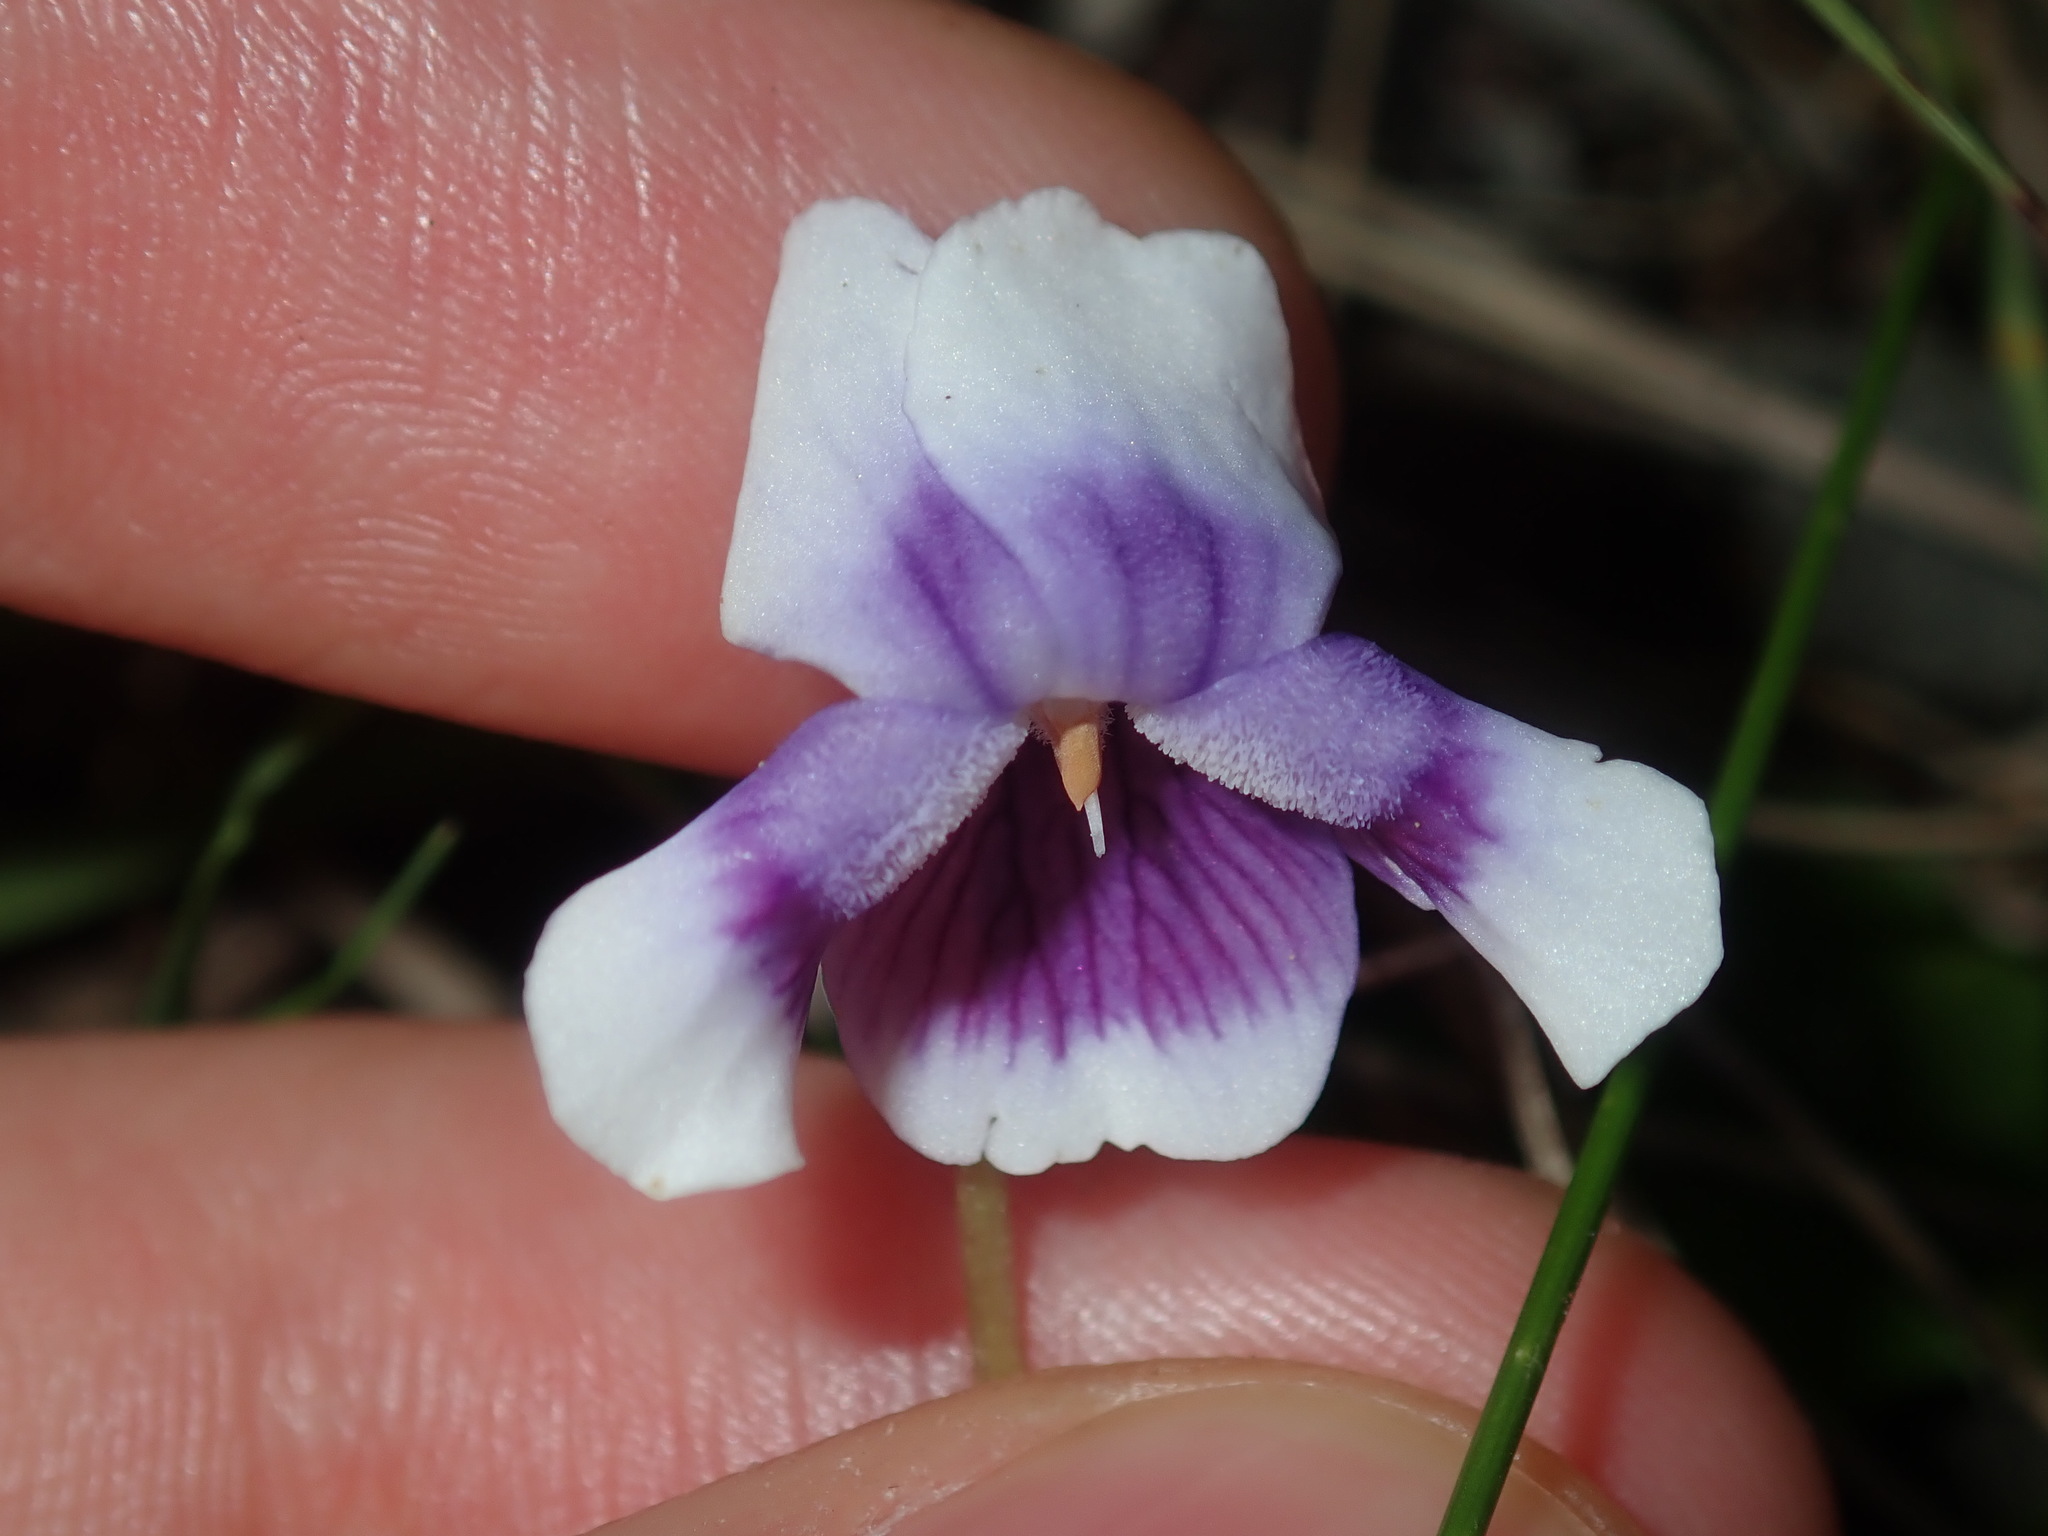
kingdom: Plantae
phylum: Tracheophyta
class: Magnoliopsida
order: Malpighiales
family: Violaceae
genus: Viola
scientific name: Viola banksii
